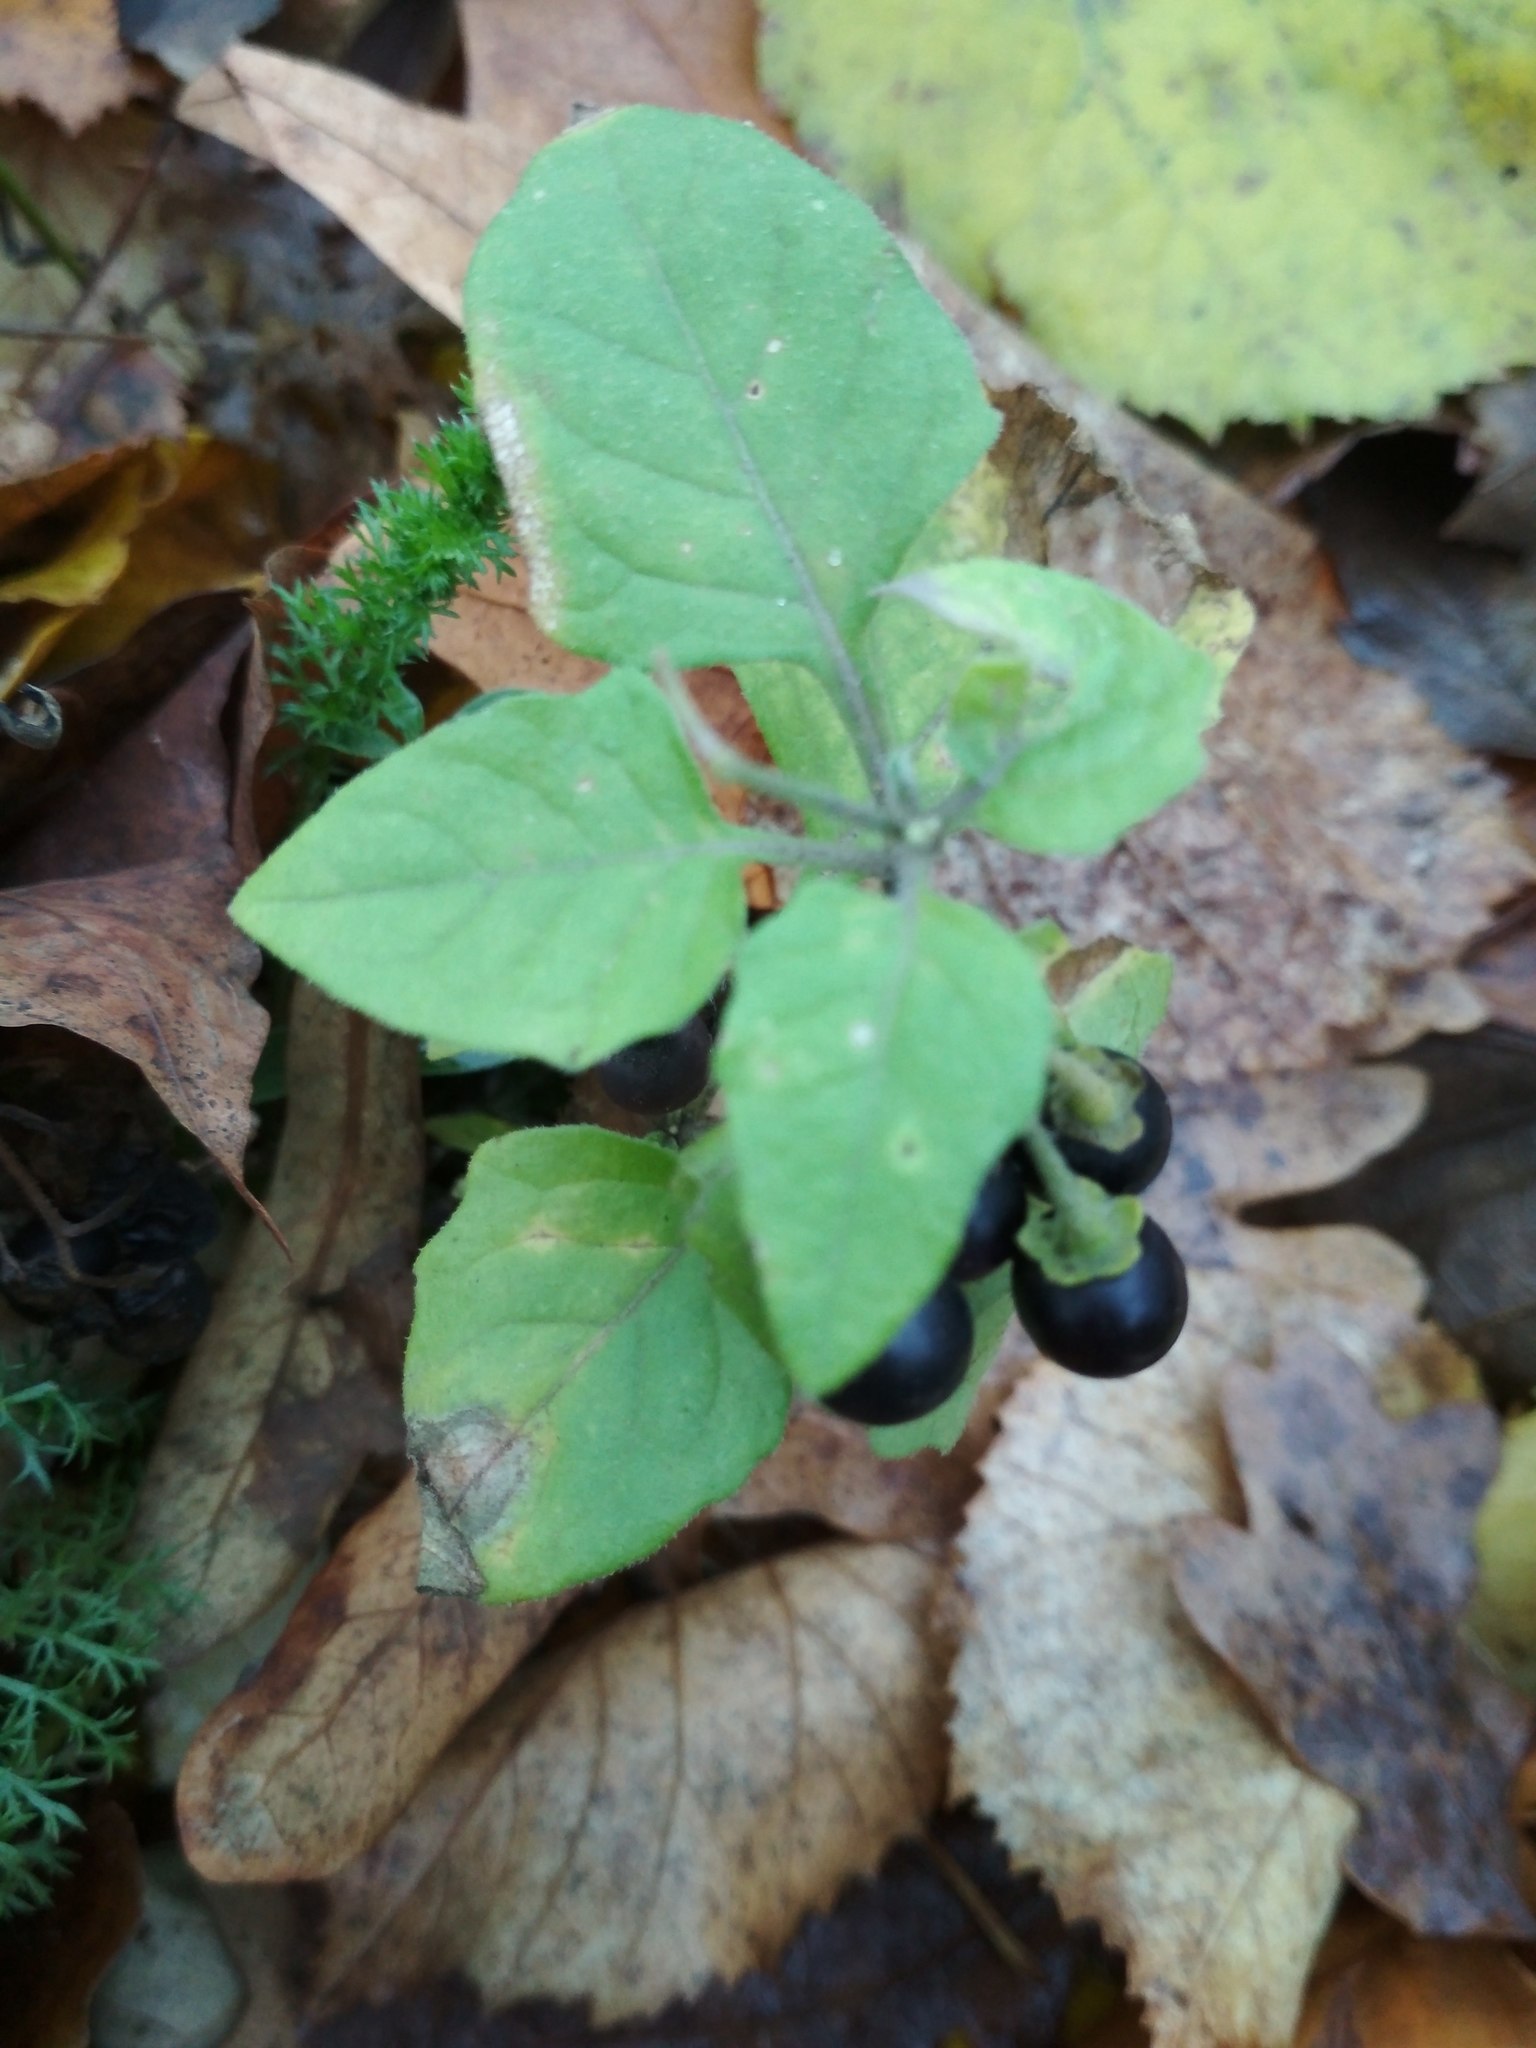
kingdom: Plantae
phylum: Tracheophyta
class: Magnoliopsida
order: Solanales
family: Solanaceae
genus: Solanum
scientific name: Solanum nigrum
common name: Black nightshade
